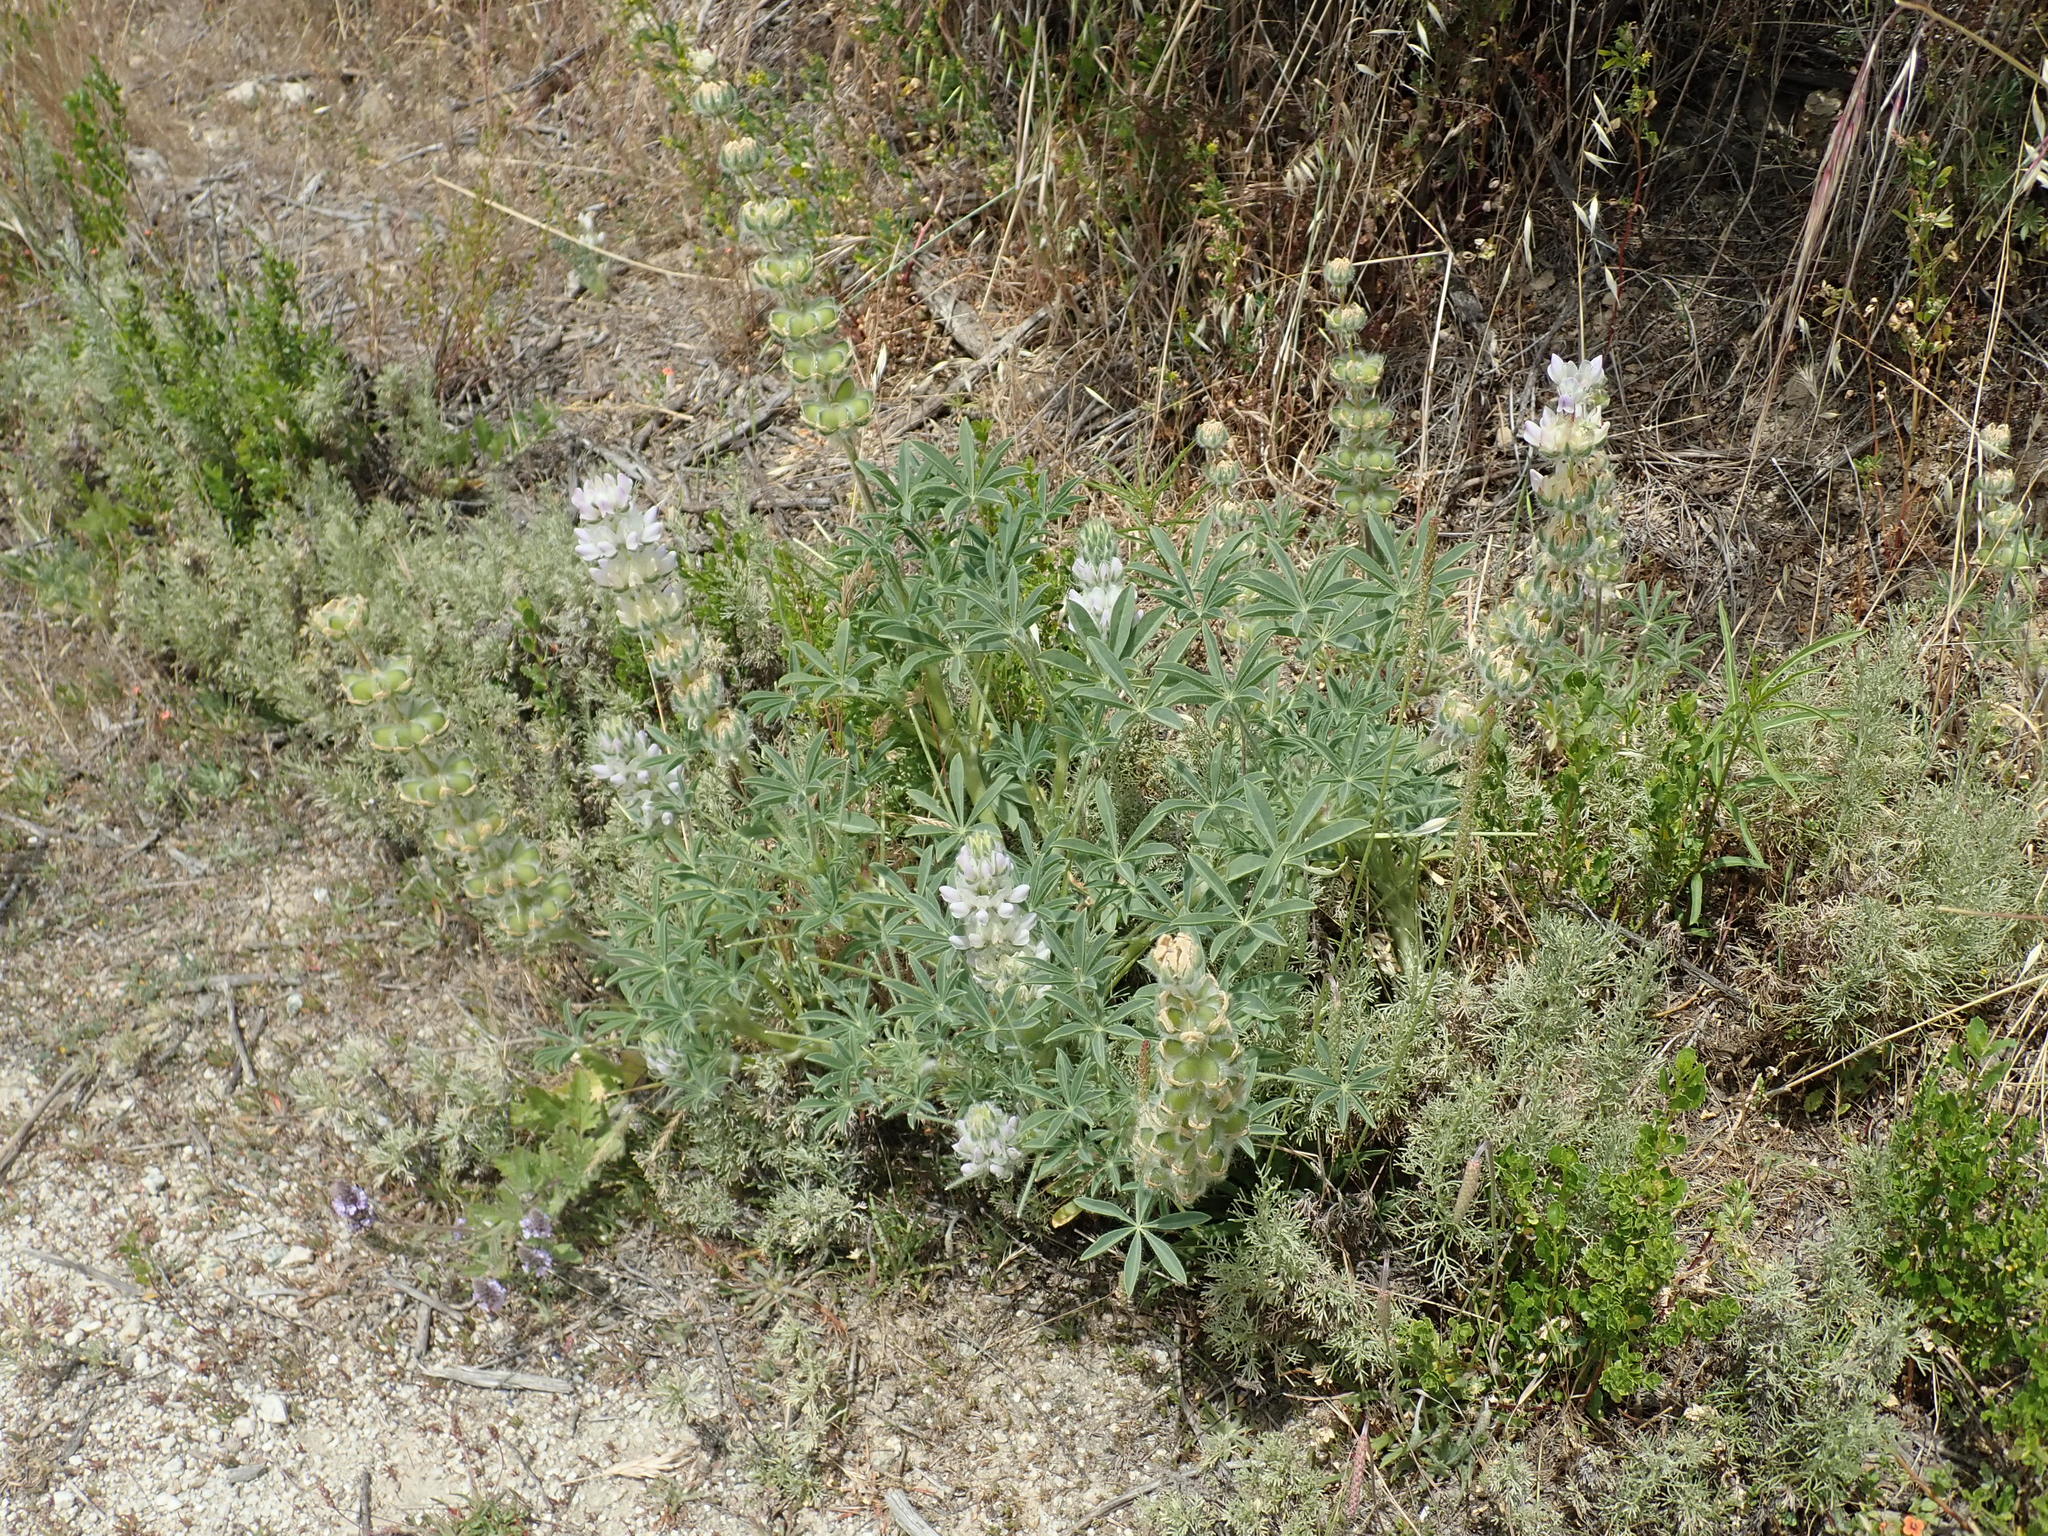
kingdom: Plantae
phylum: Tracheophyta
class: Magnoliopsida
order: Fabales
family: Fabaceae
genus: Lupinus
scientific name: Lupinus microcarpus
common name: Chick lupine
